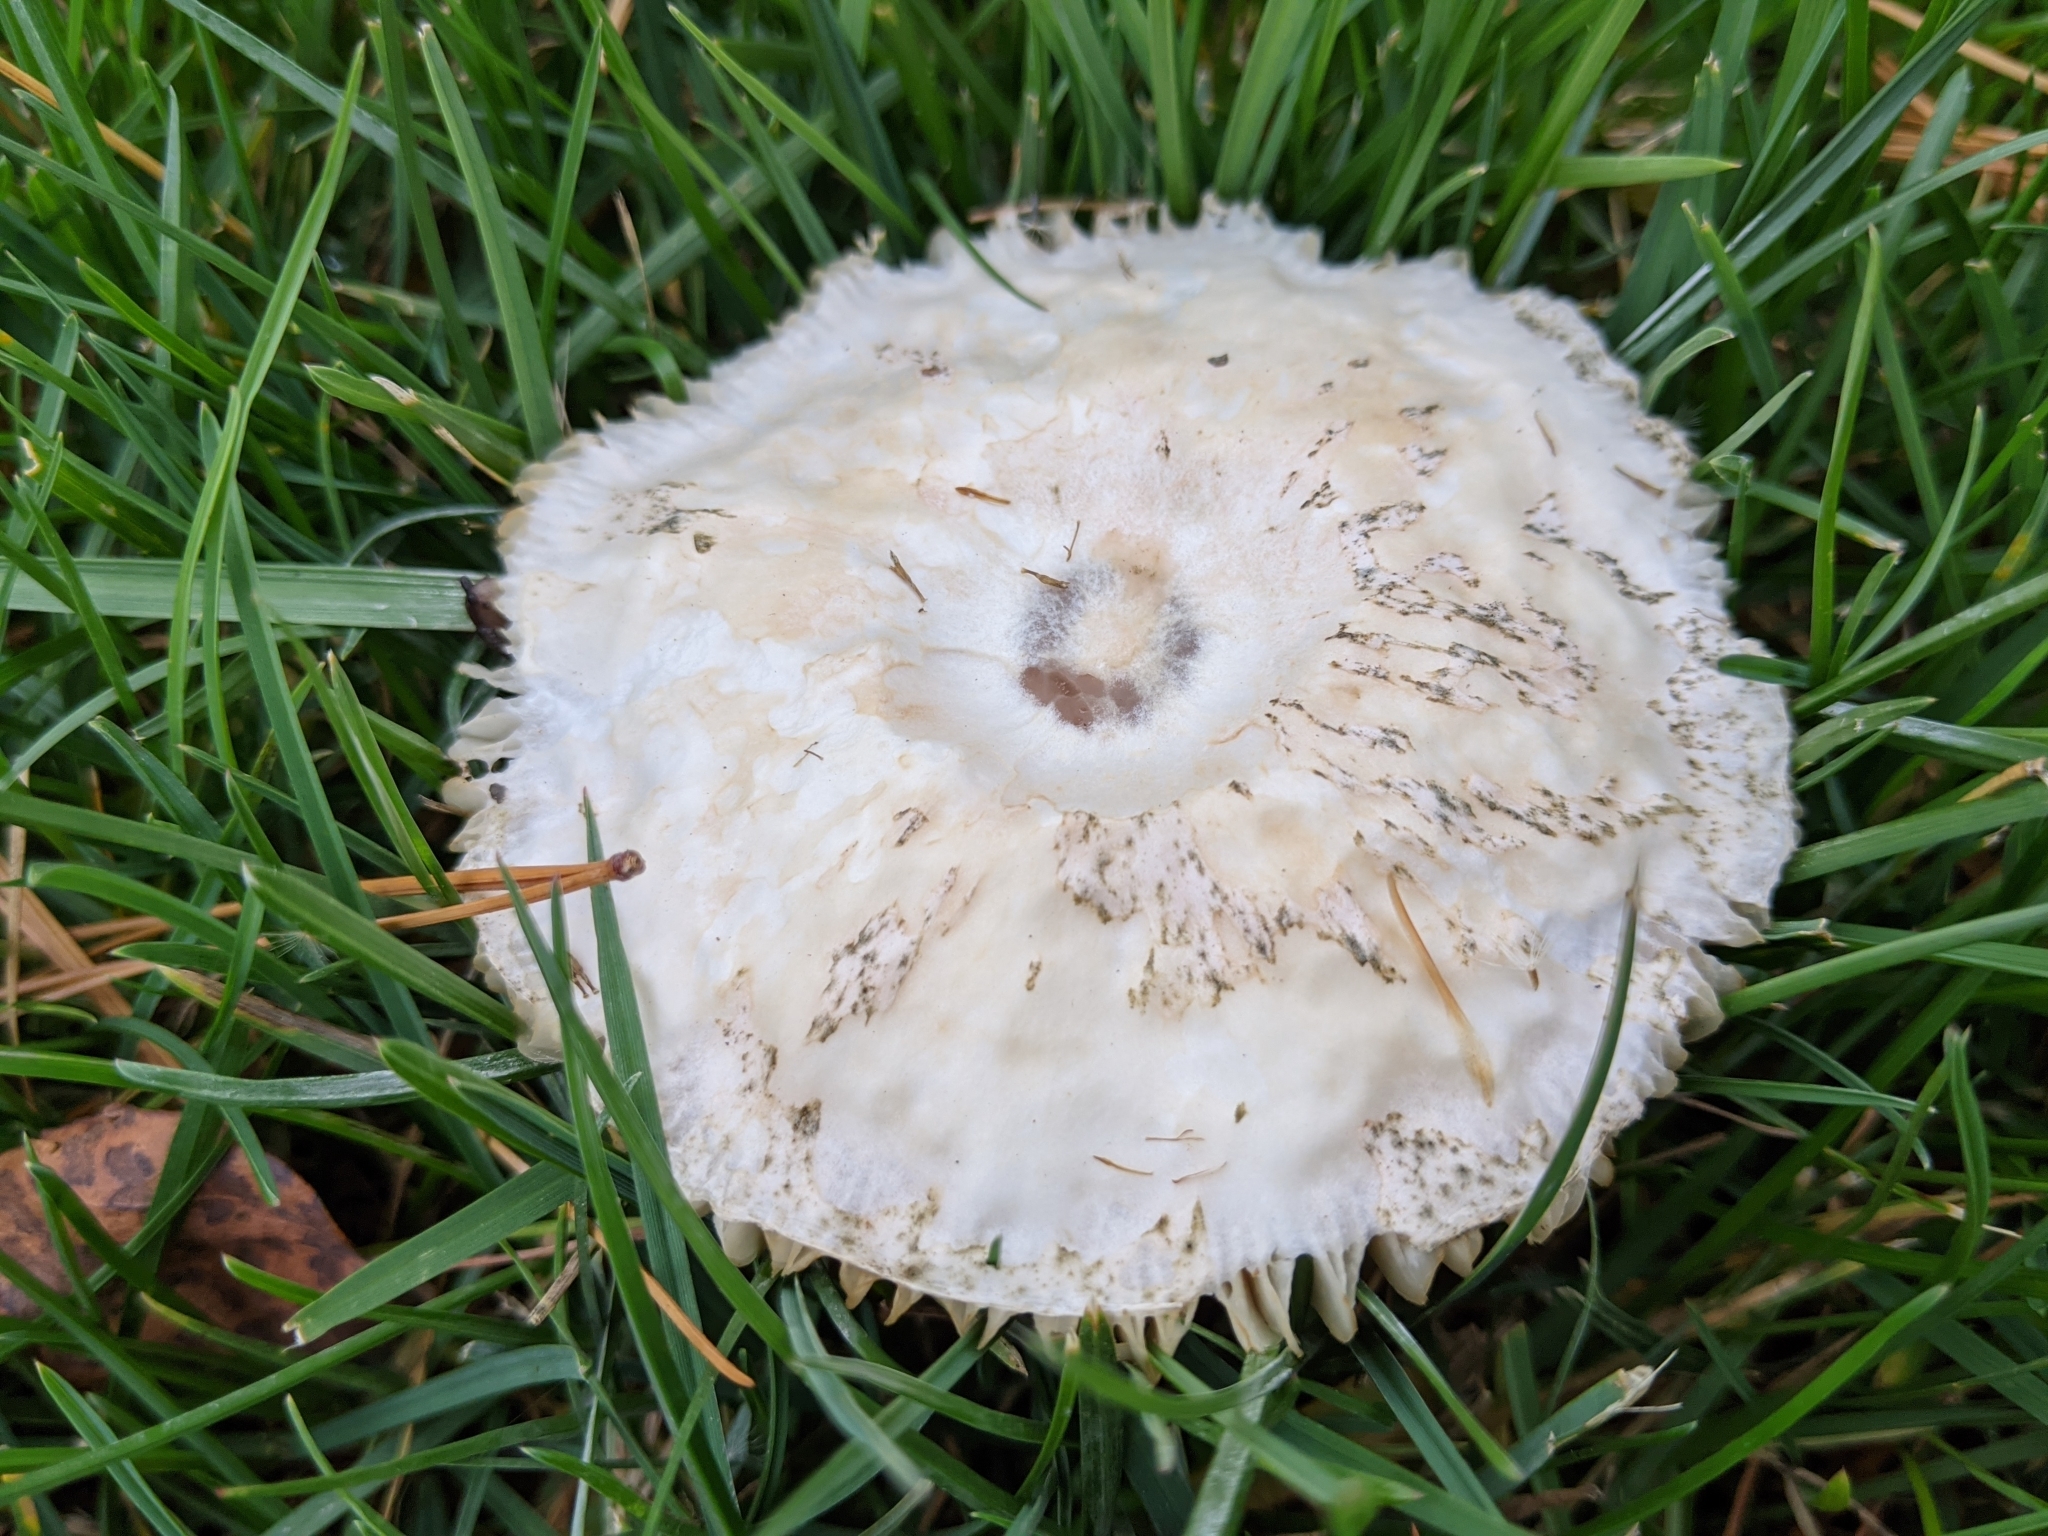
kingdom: Fungi
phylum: Basidiomycota
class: Agaricomycetes
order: Agaricales
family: Agaricaceae
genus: Leucoagaricus
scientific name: Leucoagaricus leucothites
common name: White dapperling
